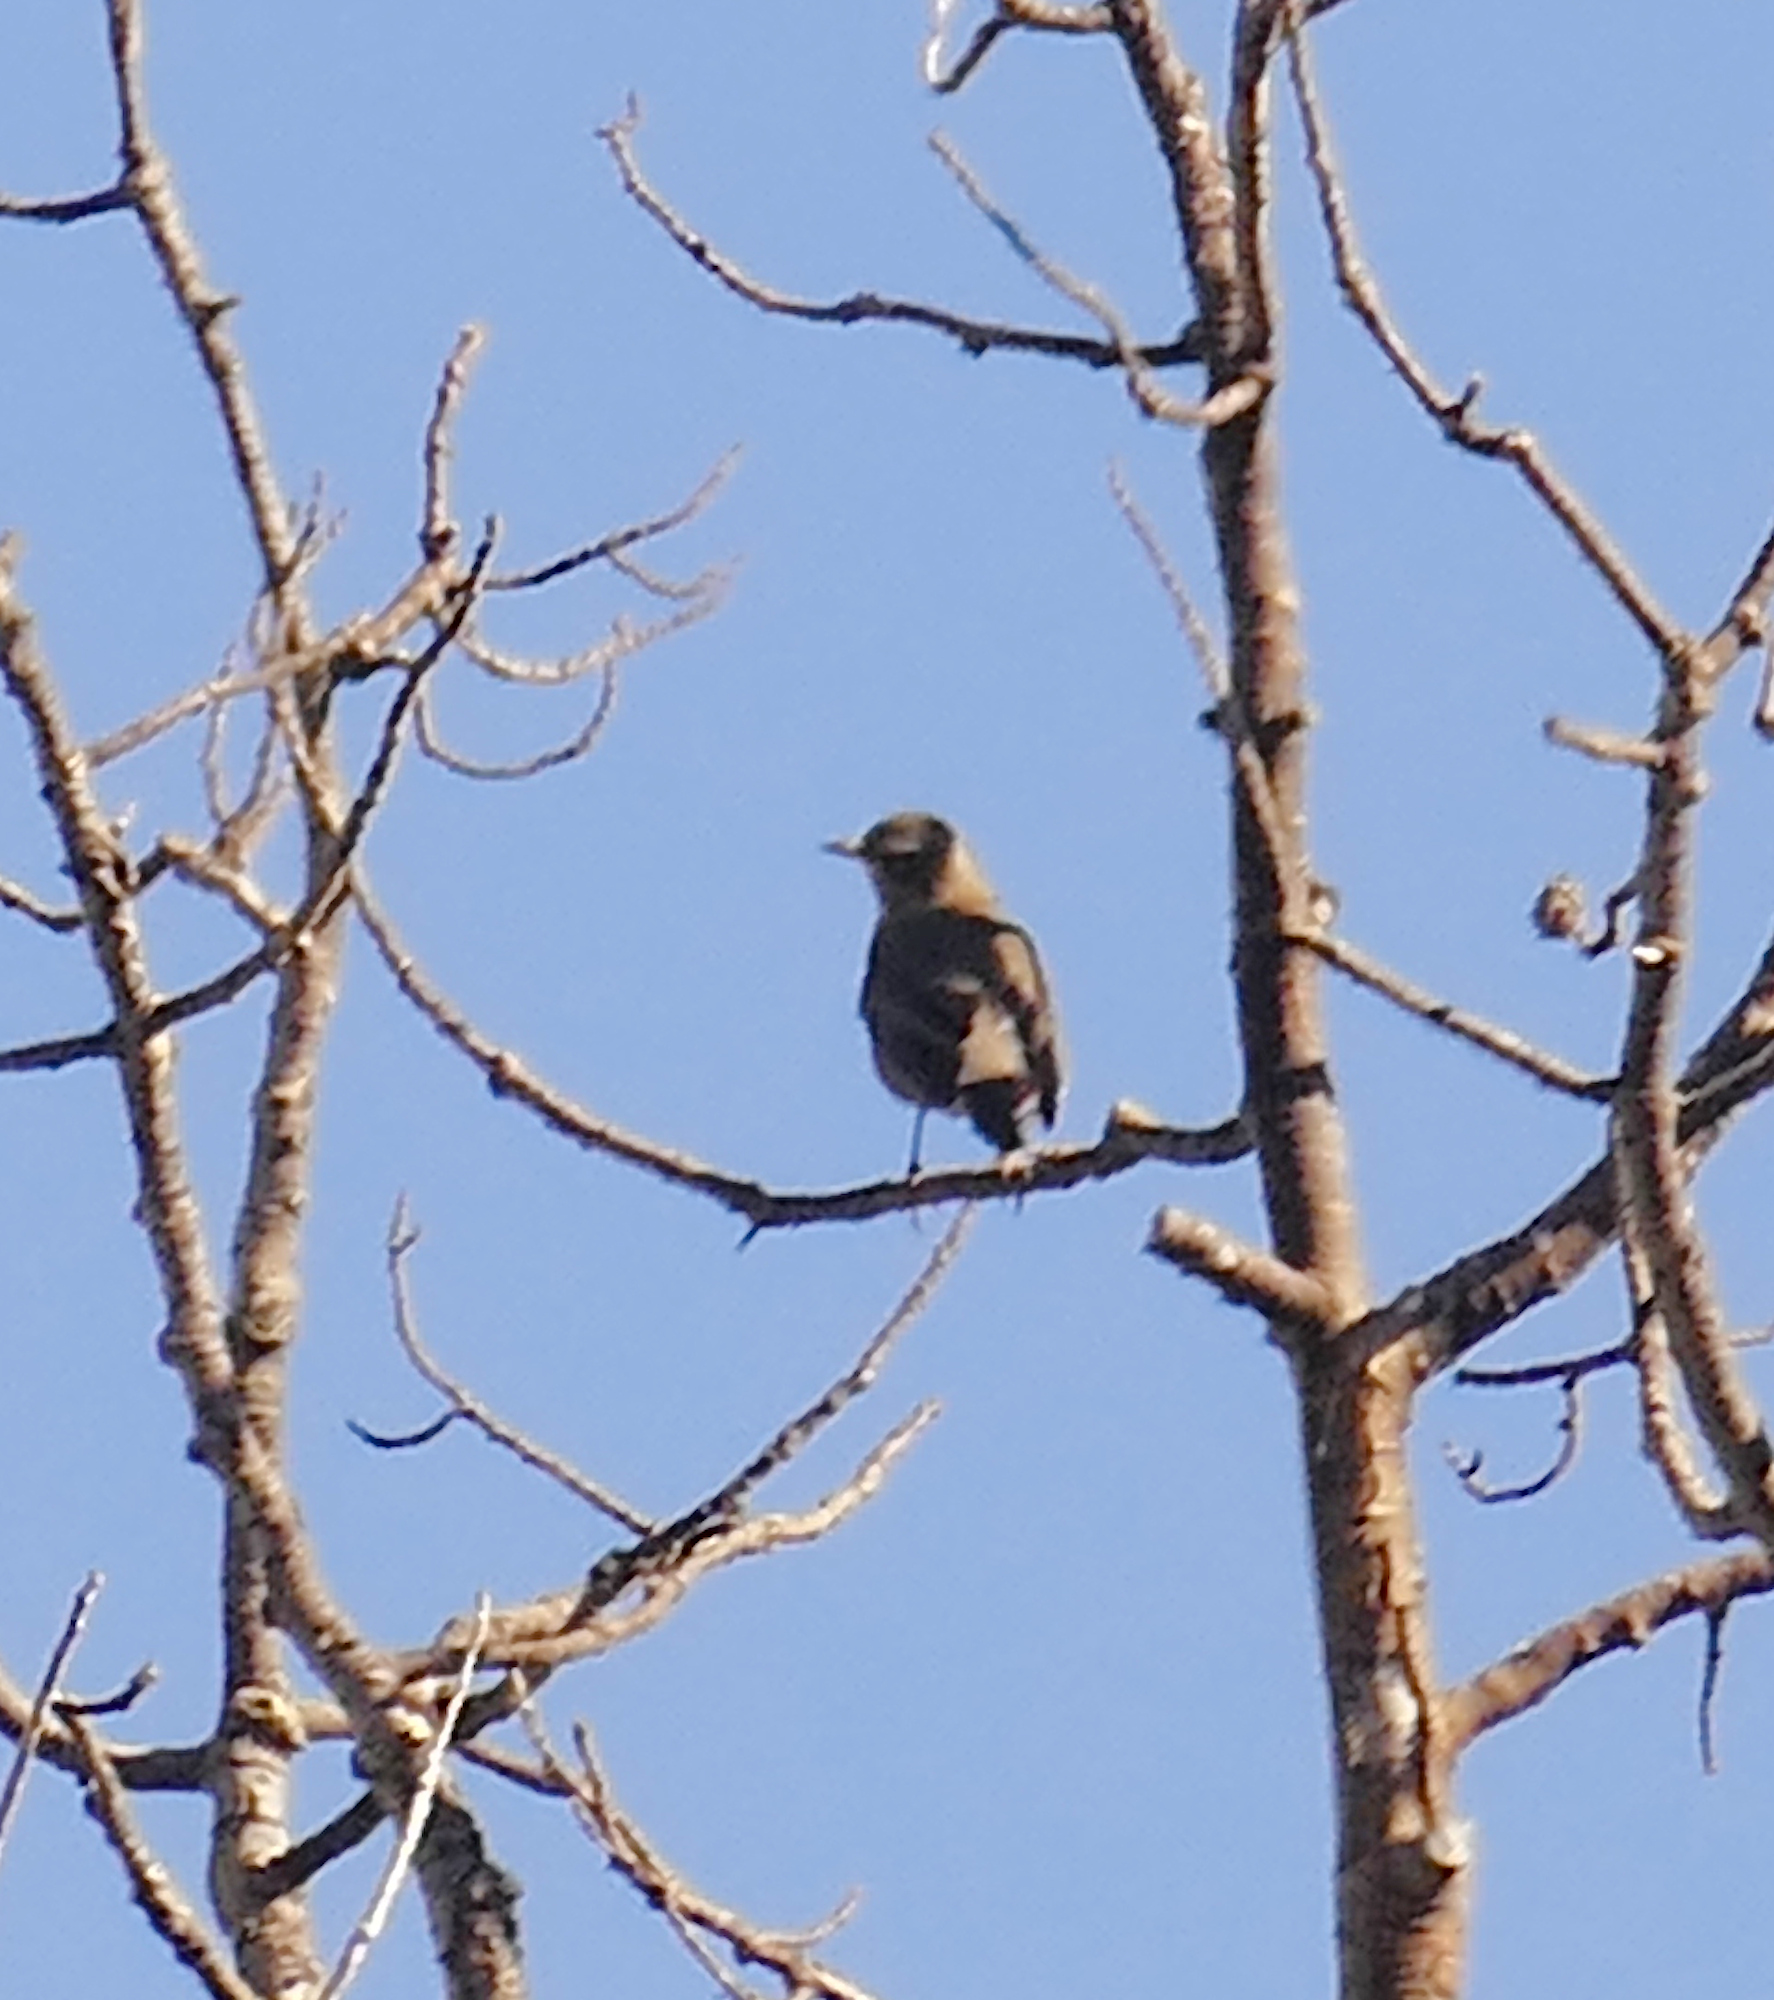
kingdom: Animalia
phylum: Chordata
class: Aves
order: Passeriformes
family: Turdidae
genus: Turdus
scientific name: Turdus migratorius
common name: American robin
